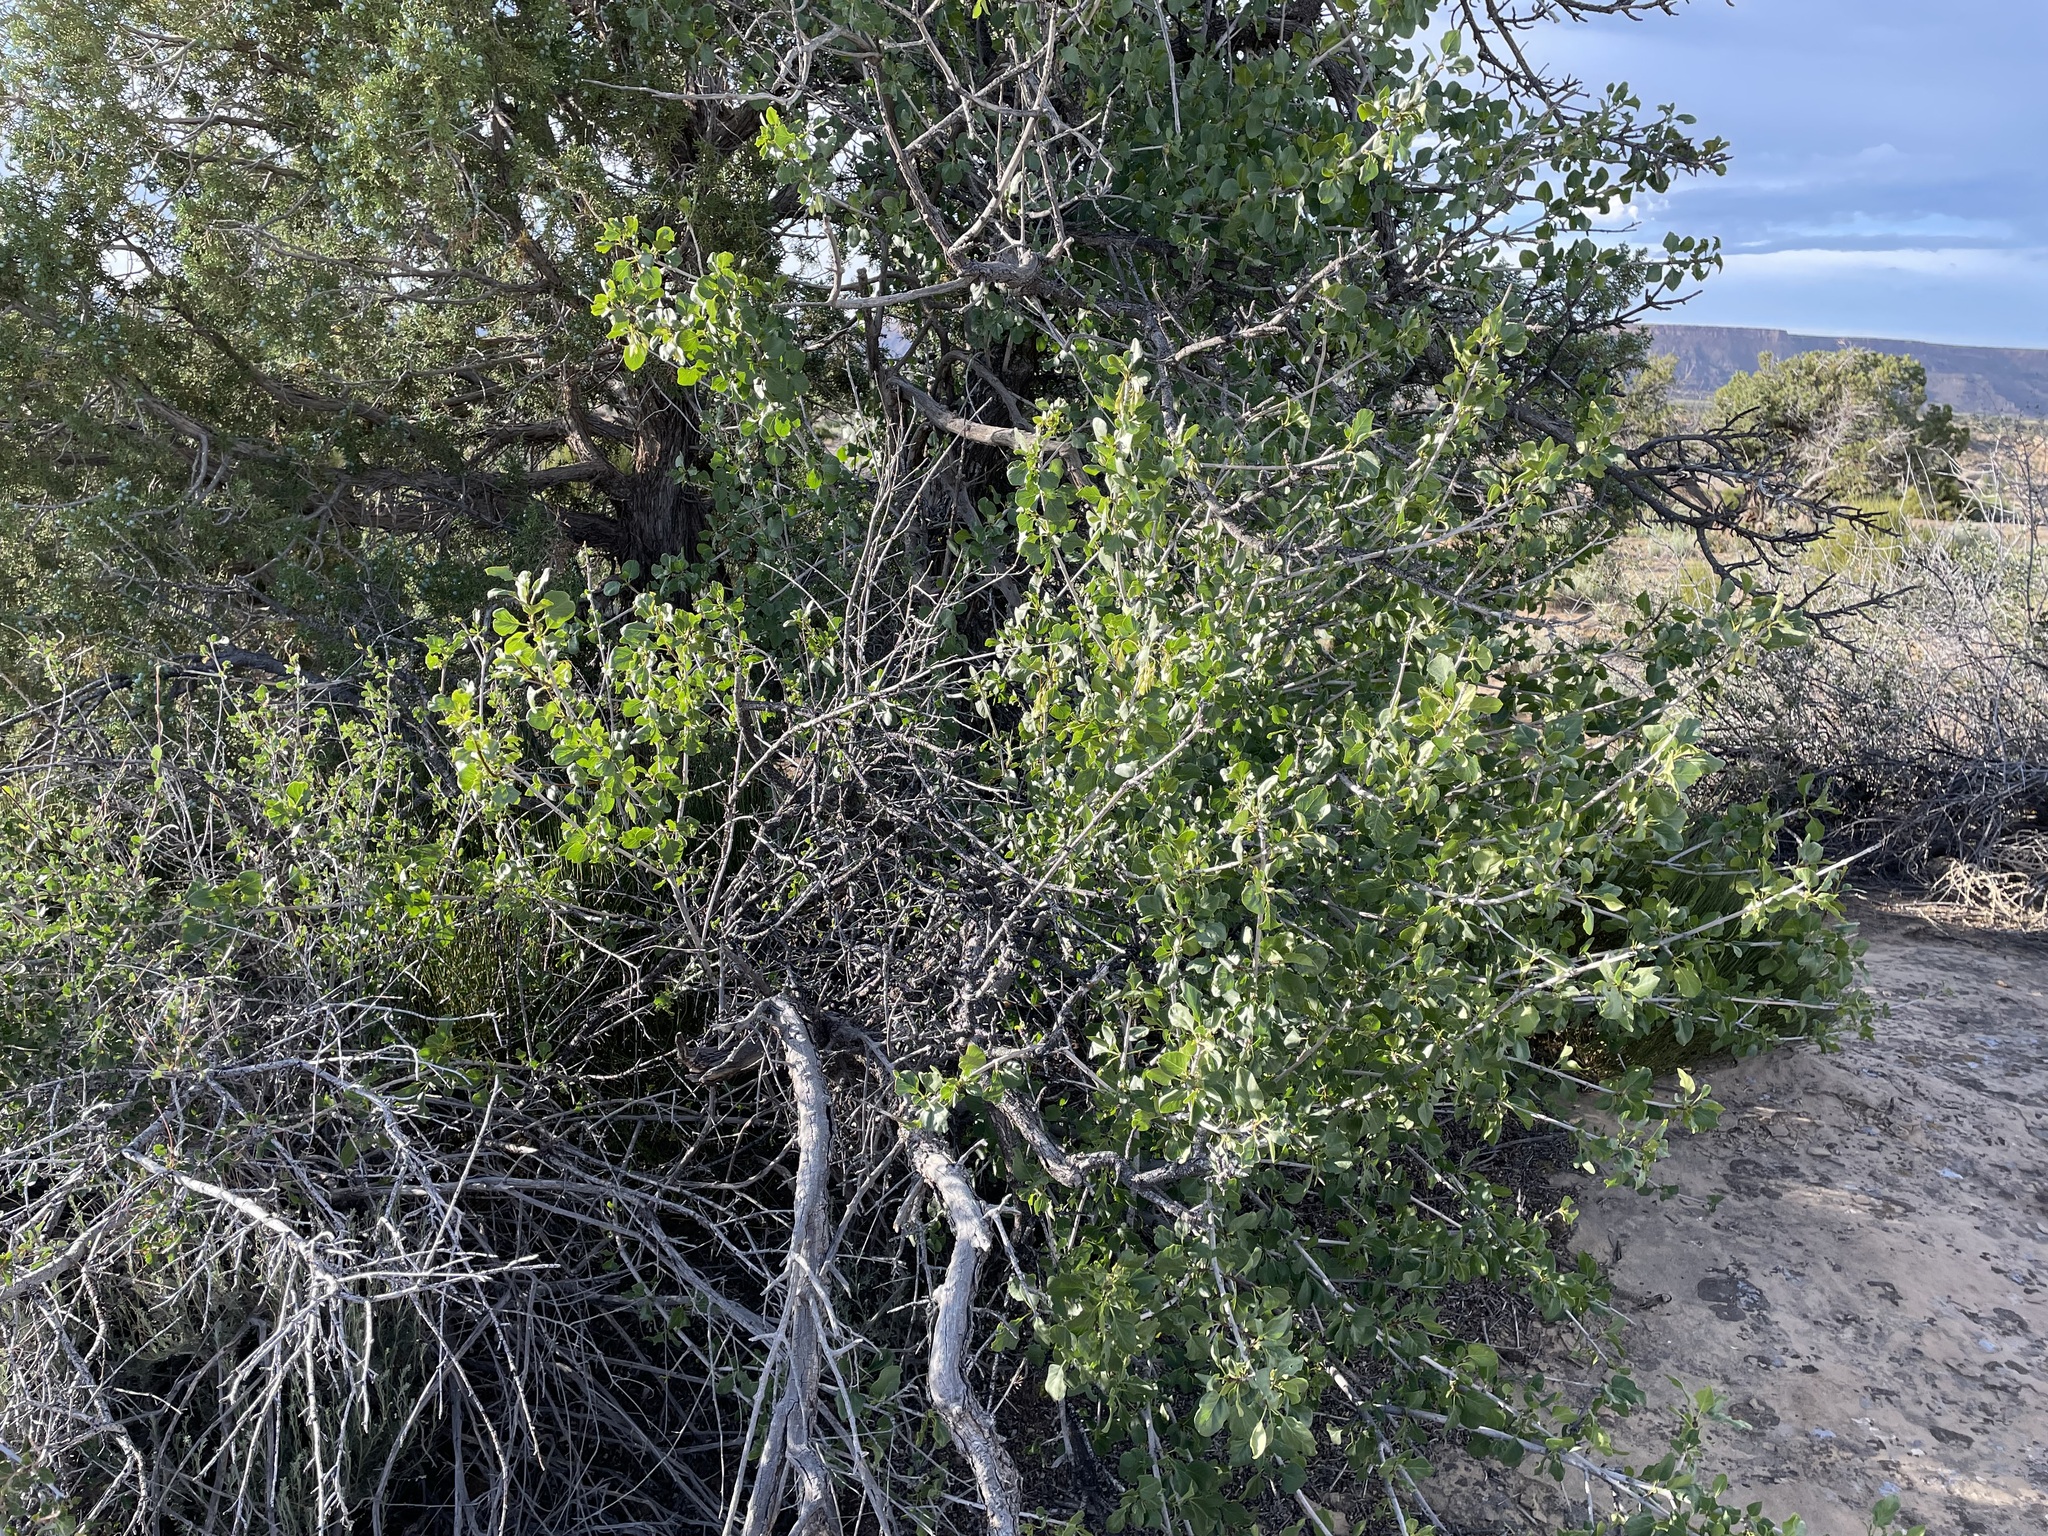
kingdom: Plantae
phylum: Tracheophyta
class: Magnoliopsida
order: Lamiales
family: Oleaceae
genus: Fraxinus
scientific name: Fraxinus anomala
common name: Utah ash
